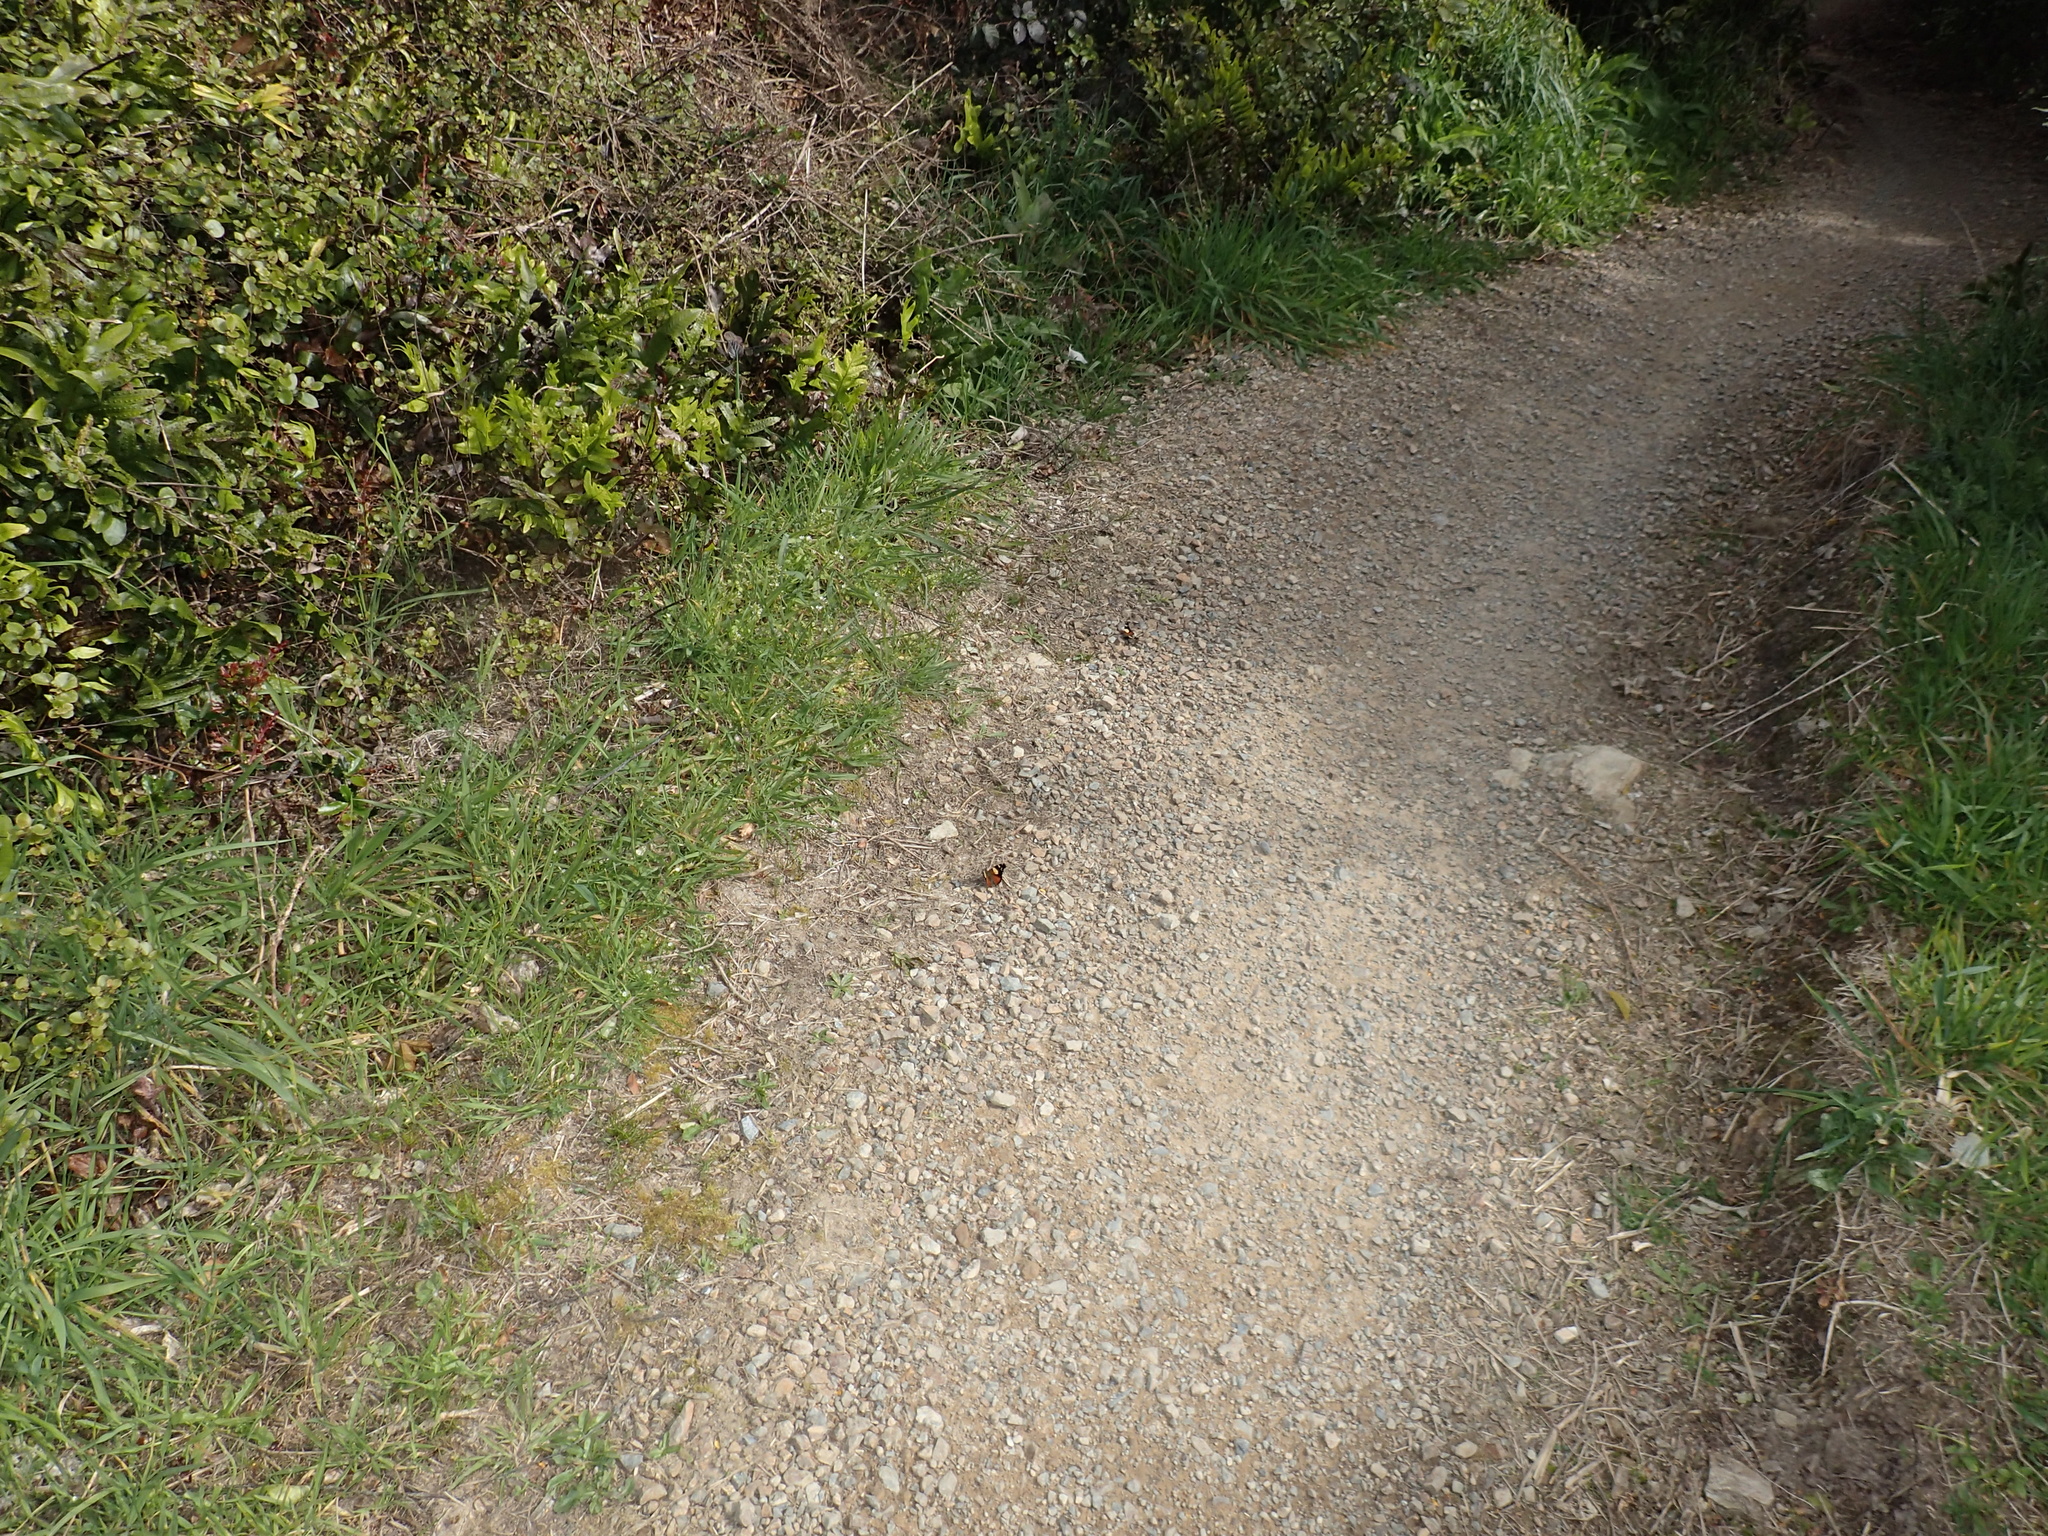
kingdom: Animalia
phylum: Arthropoda
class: Insecta
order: Lepidoptera
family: Nymphalidae
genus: Vanessa
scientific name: Vanessa itea
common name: Yellow admiral
